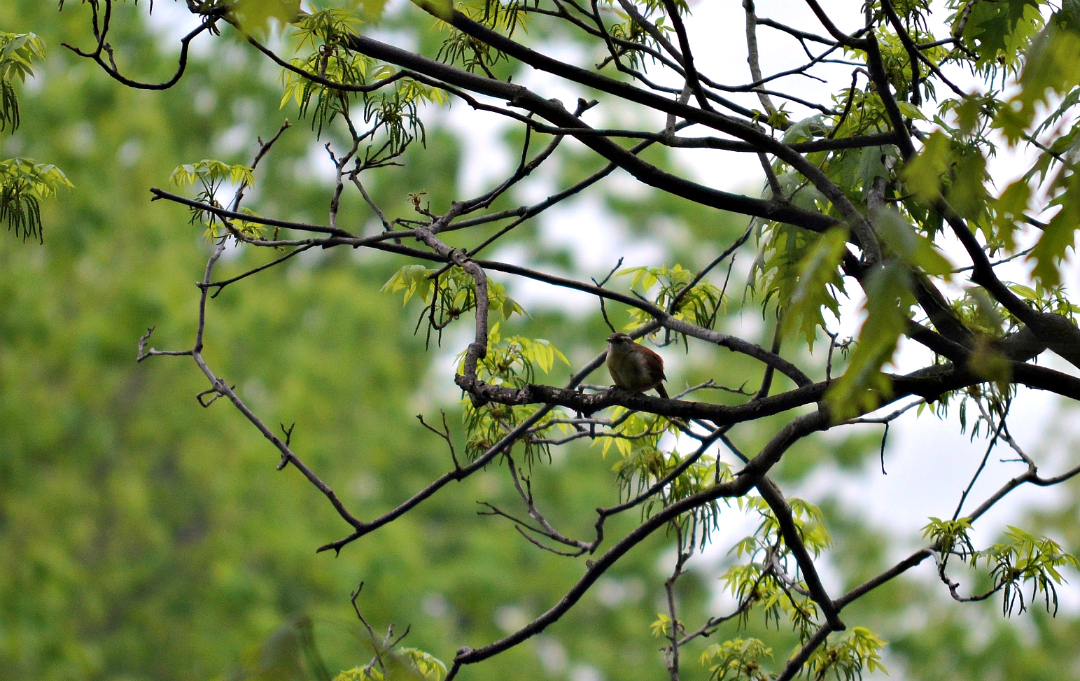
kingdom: Animalia
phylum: Chordata
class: Aves
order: Passeriformes
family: Troglodytidae
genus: Thryothorus
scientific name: Thryothorus ludovicianus
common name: Carolina wren
